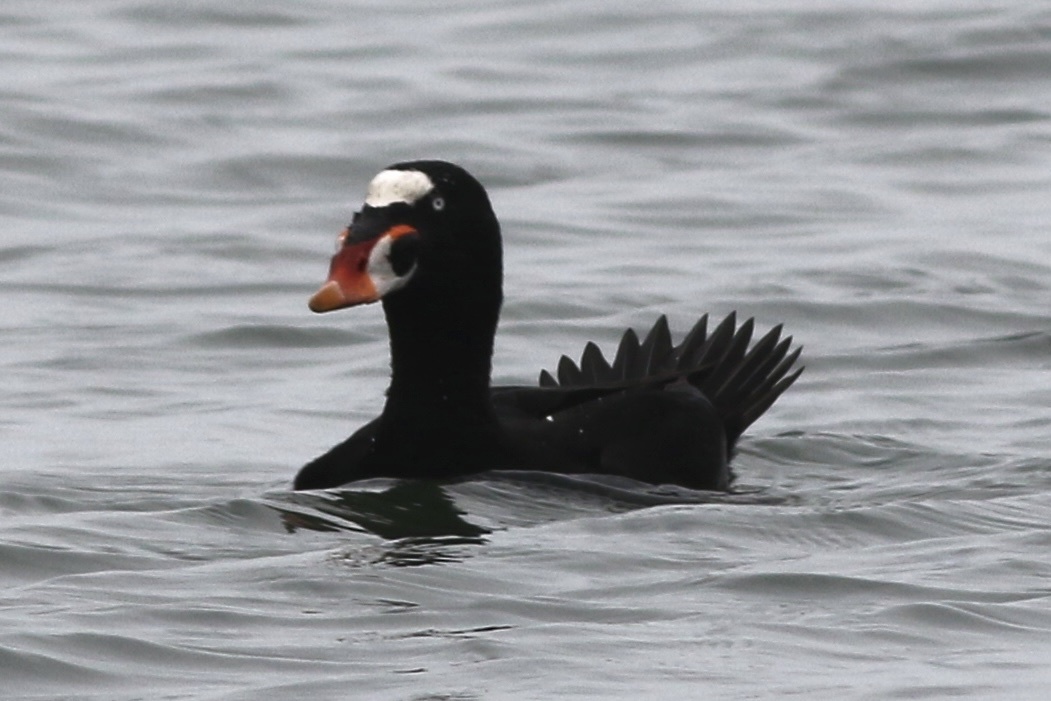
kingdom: Animalia
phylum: Chordata
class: Aves
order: Anseriformes
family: Anatidae
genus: Melanitta
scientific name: Melanitta perspicillata
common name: Surf scoter
